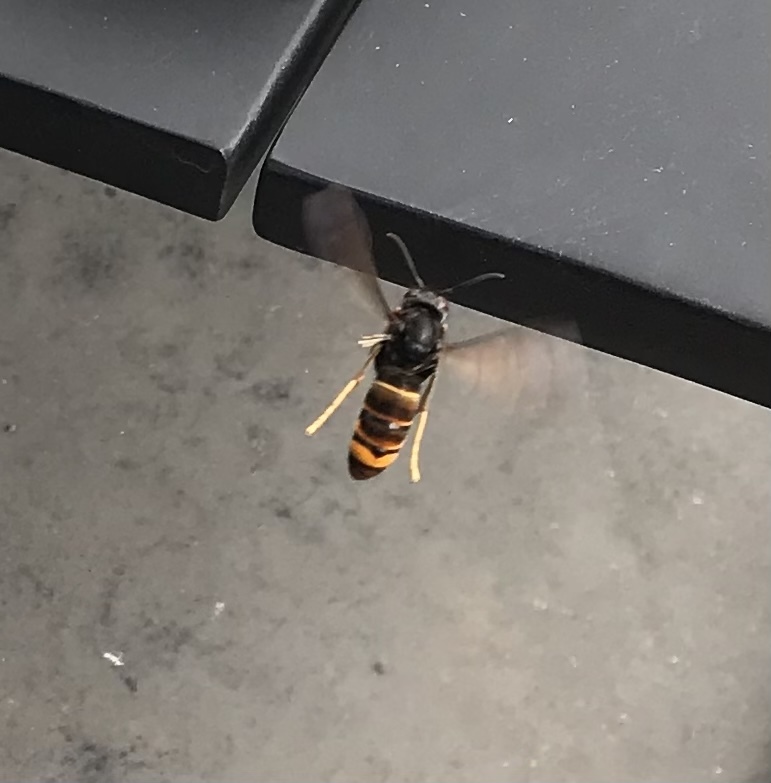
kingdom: Animalia
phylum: Arthropoda
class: Insecta
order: Hymenoptera
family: Vespidae
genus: Vespa
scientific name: Vespa velutina
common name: Asian hornet
